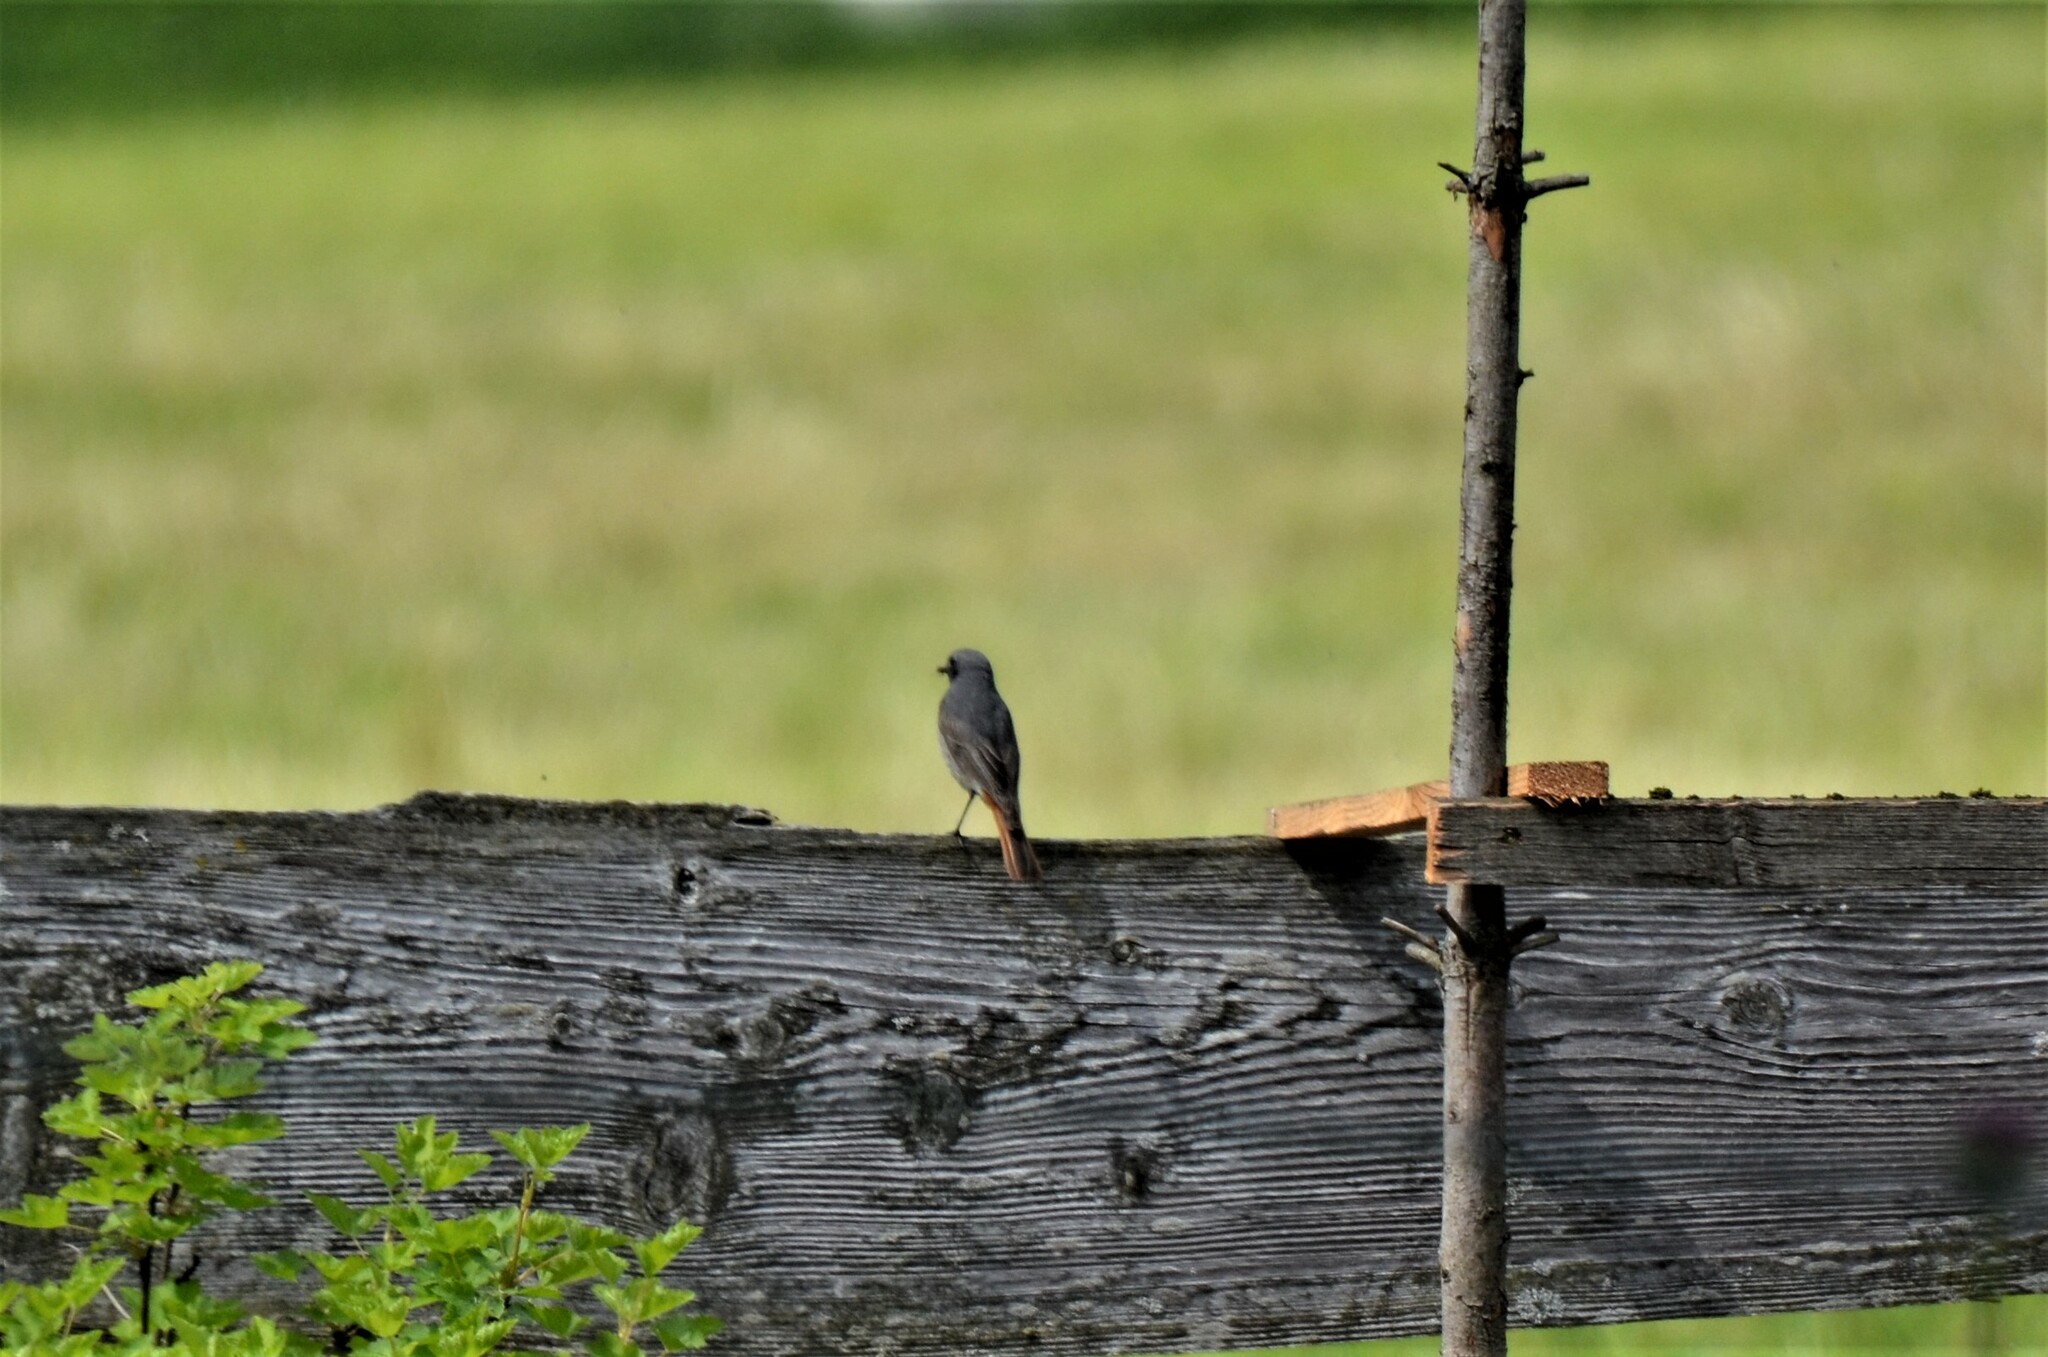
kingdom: Animalia
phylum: Chordata
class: Aves
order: Passeriformes
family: Muscicapidae
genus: Phoenicurus
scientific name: Phoenicurus ochruros
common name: Black redstart
